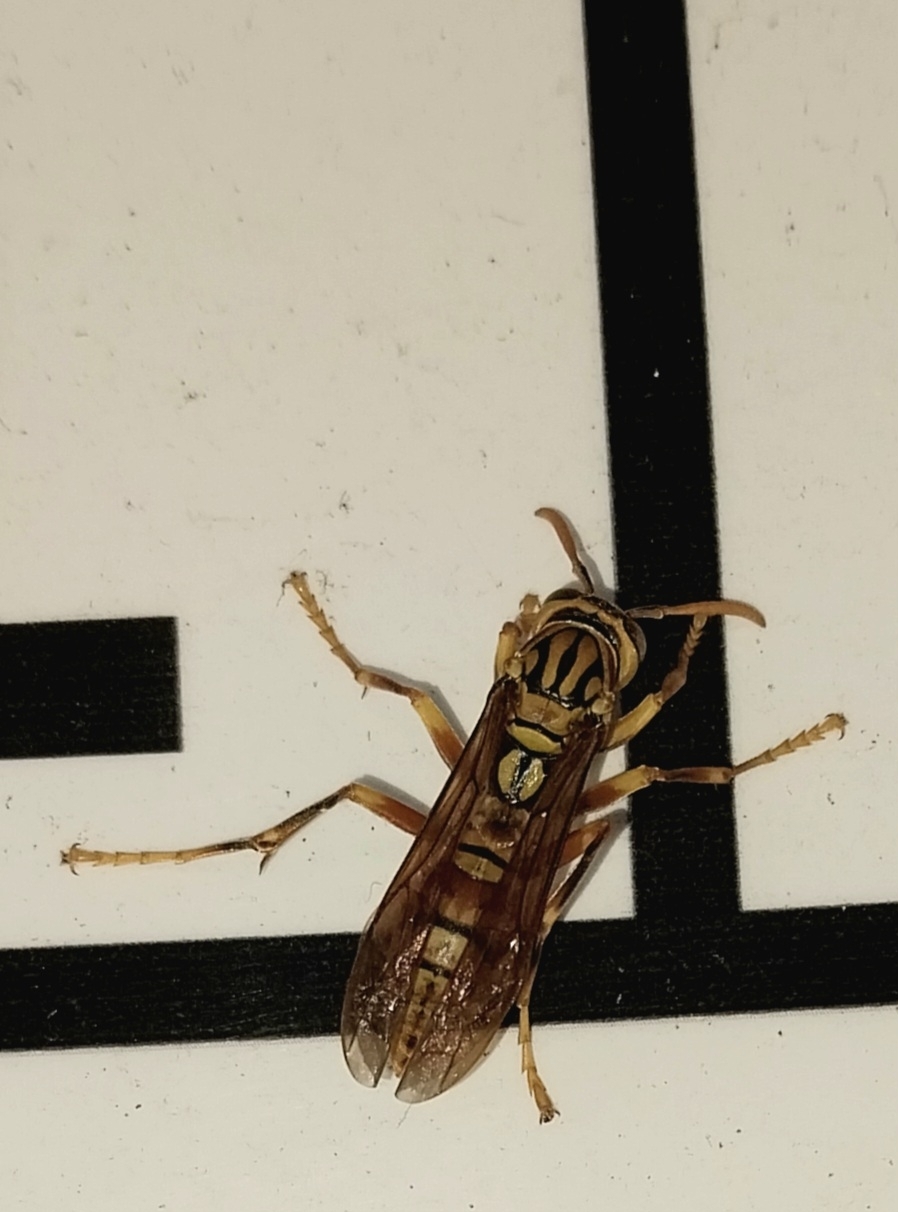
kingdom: Animalia
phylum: Arthropoda
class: Insecta
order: Hymenoptera
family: Eumenidae
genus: Polistes
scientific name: Polistes olivaceus
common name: Paper wasp
